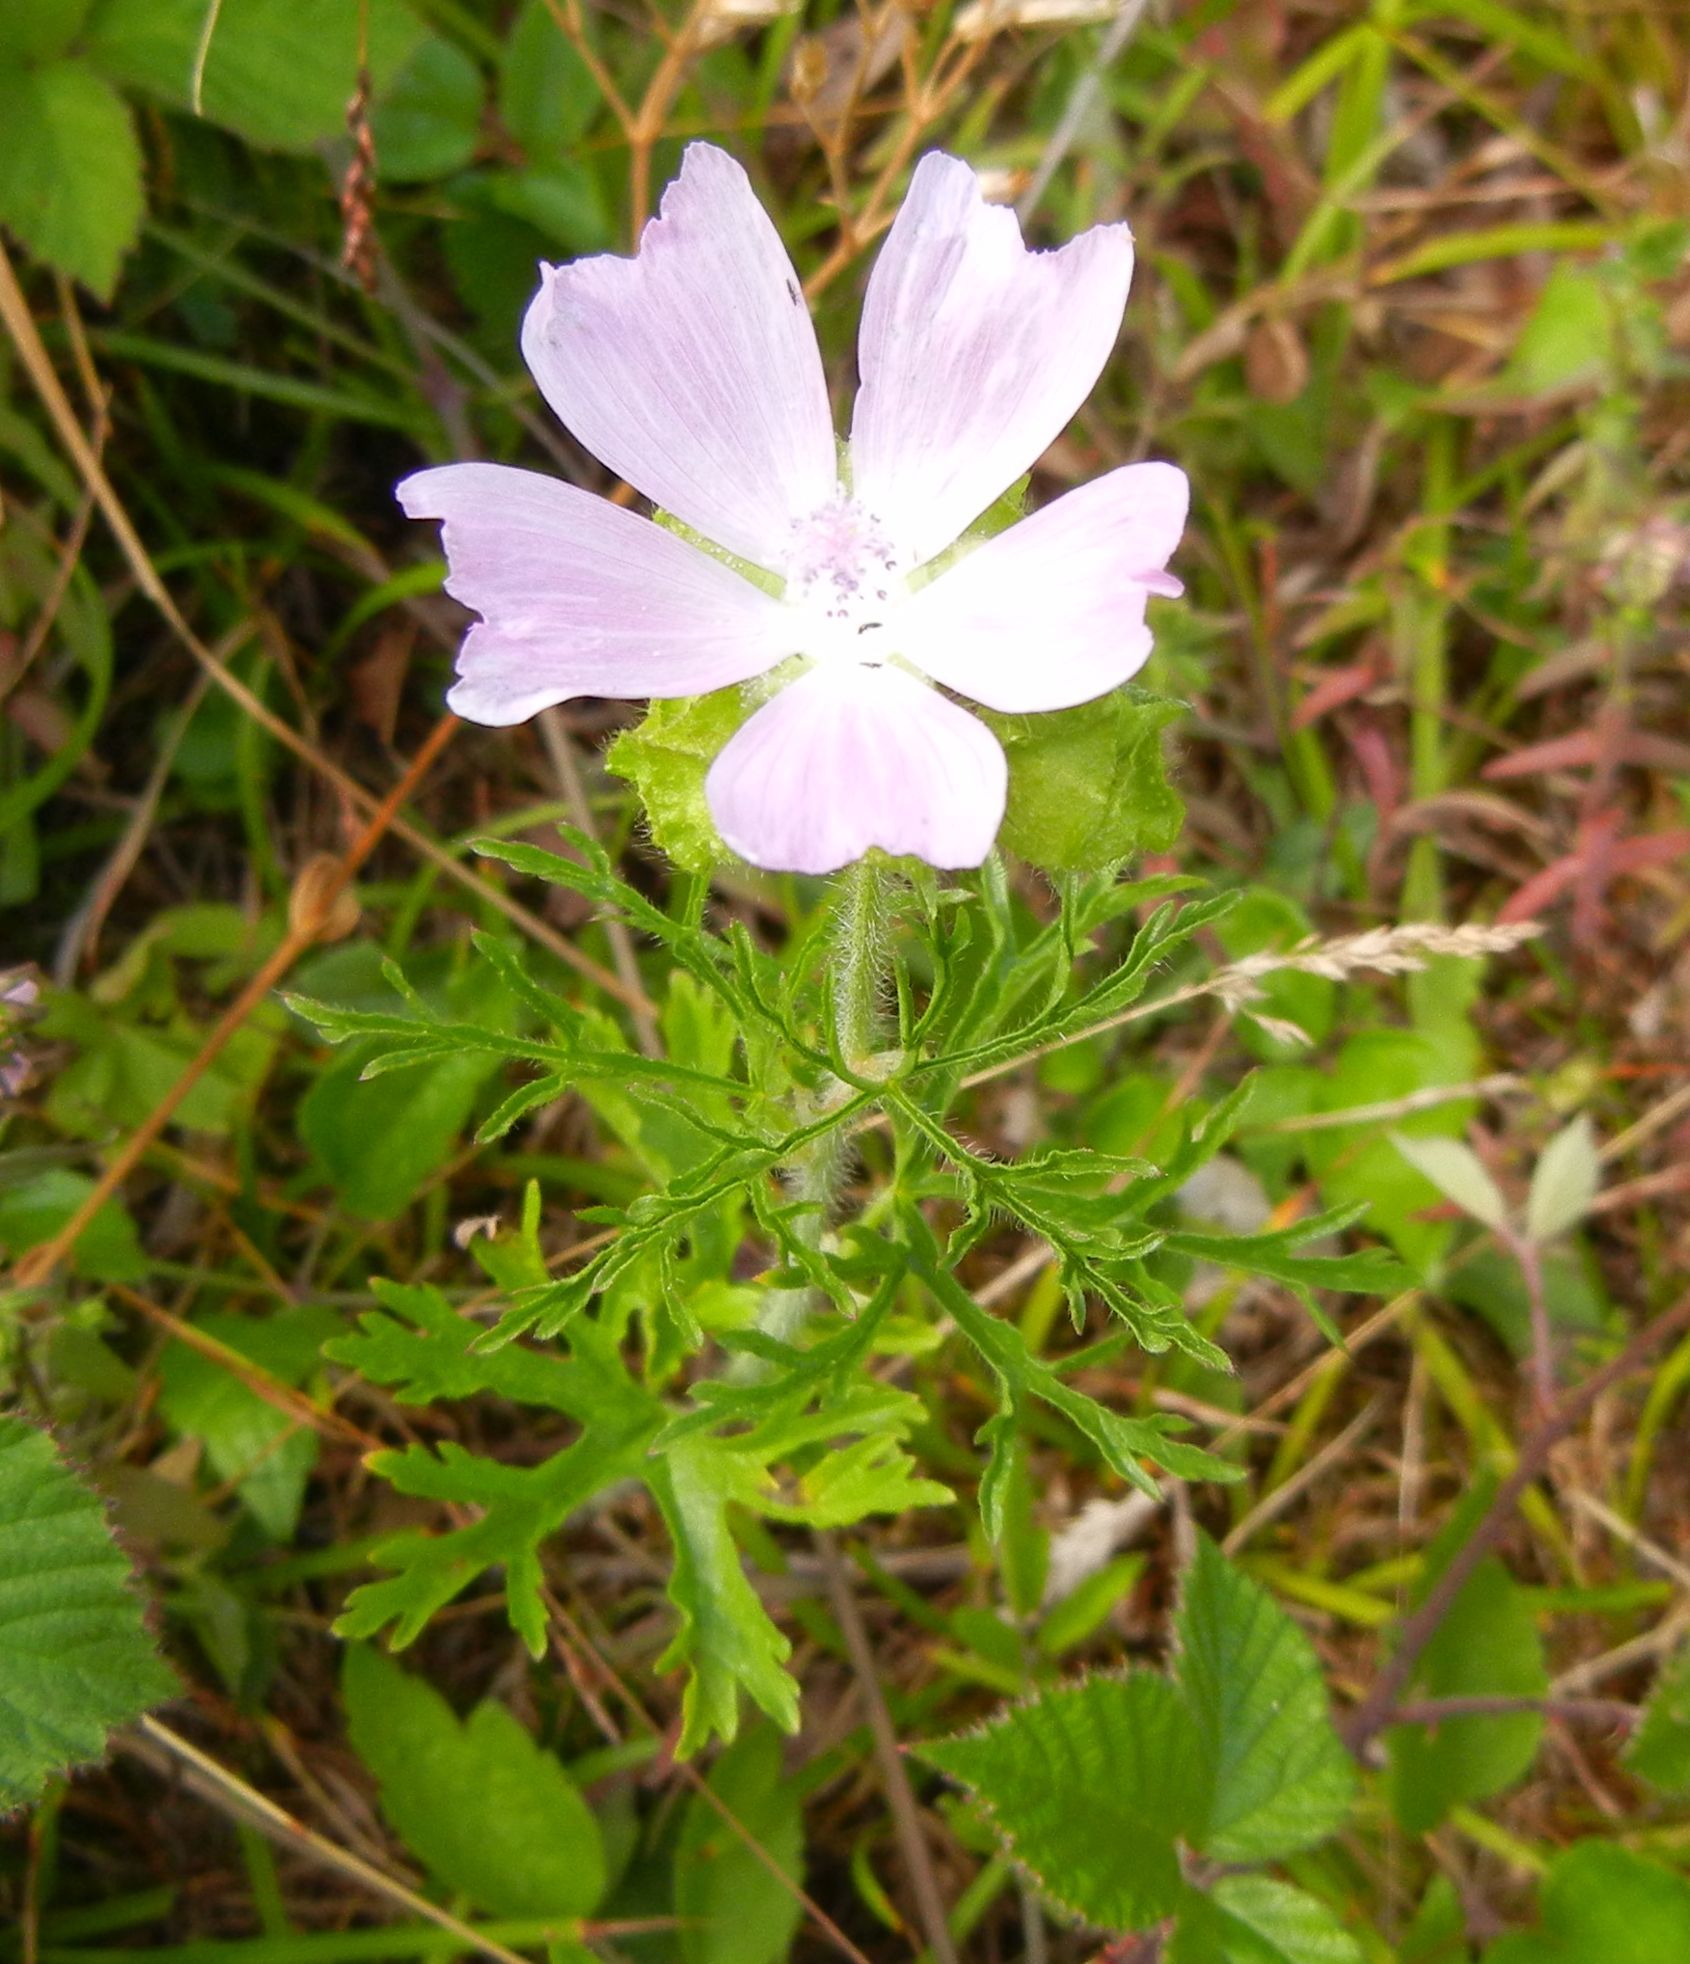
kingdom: Plantae
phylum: Tracheophyta
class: Magnoliopsida
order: Malvales
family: Malvaceae
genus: Malva
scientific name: Malva moschata
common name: Musk mallow
